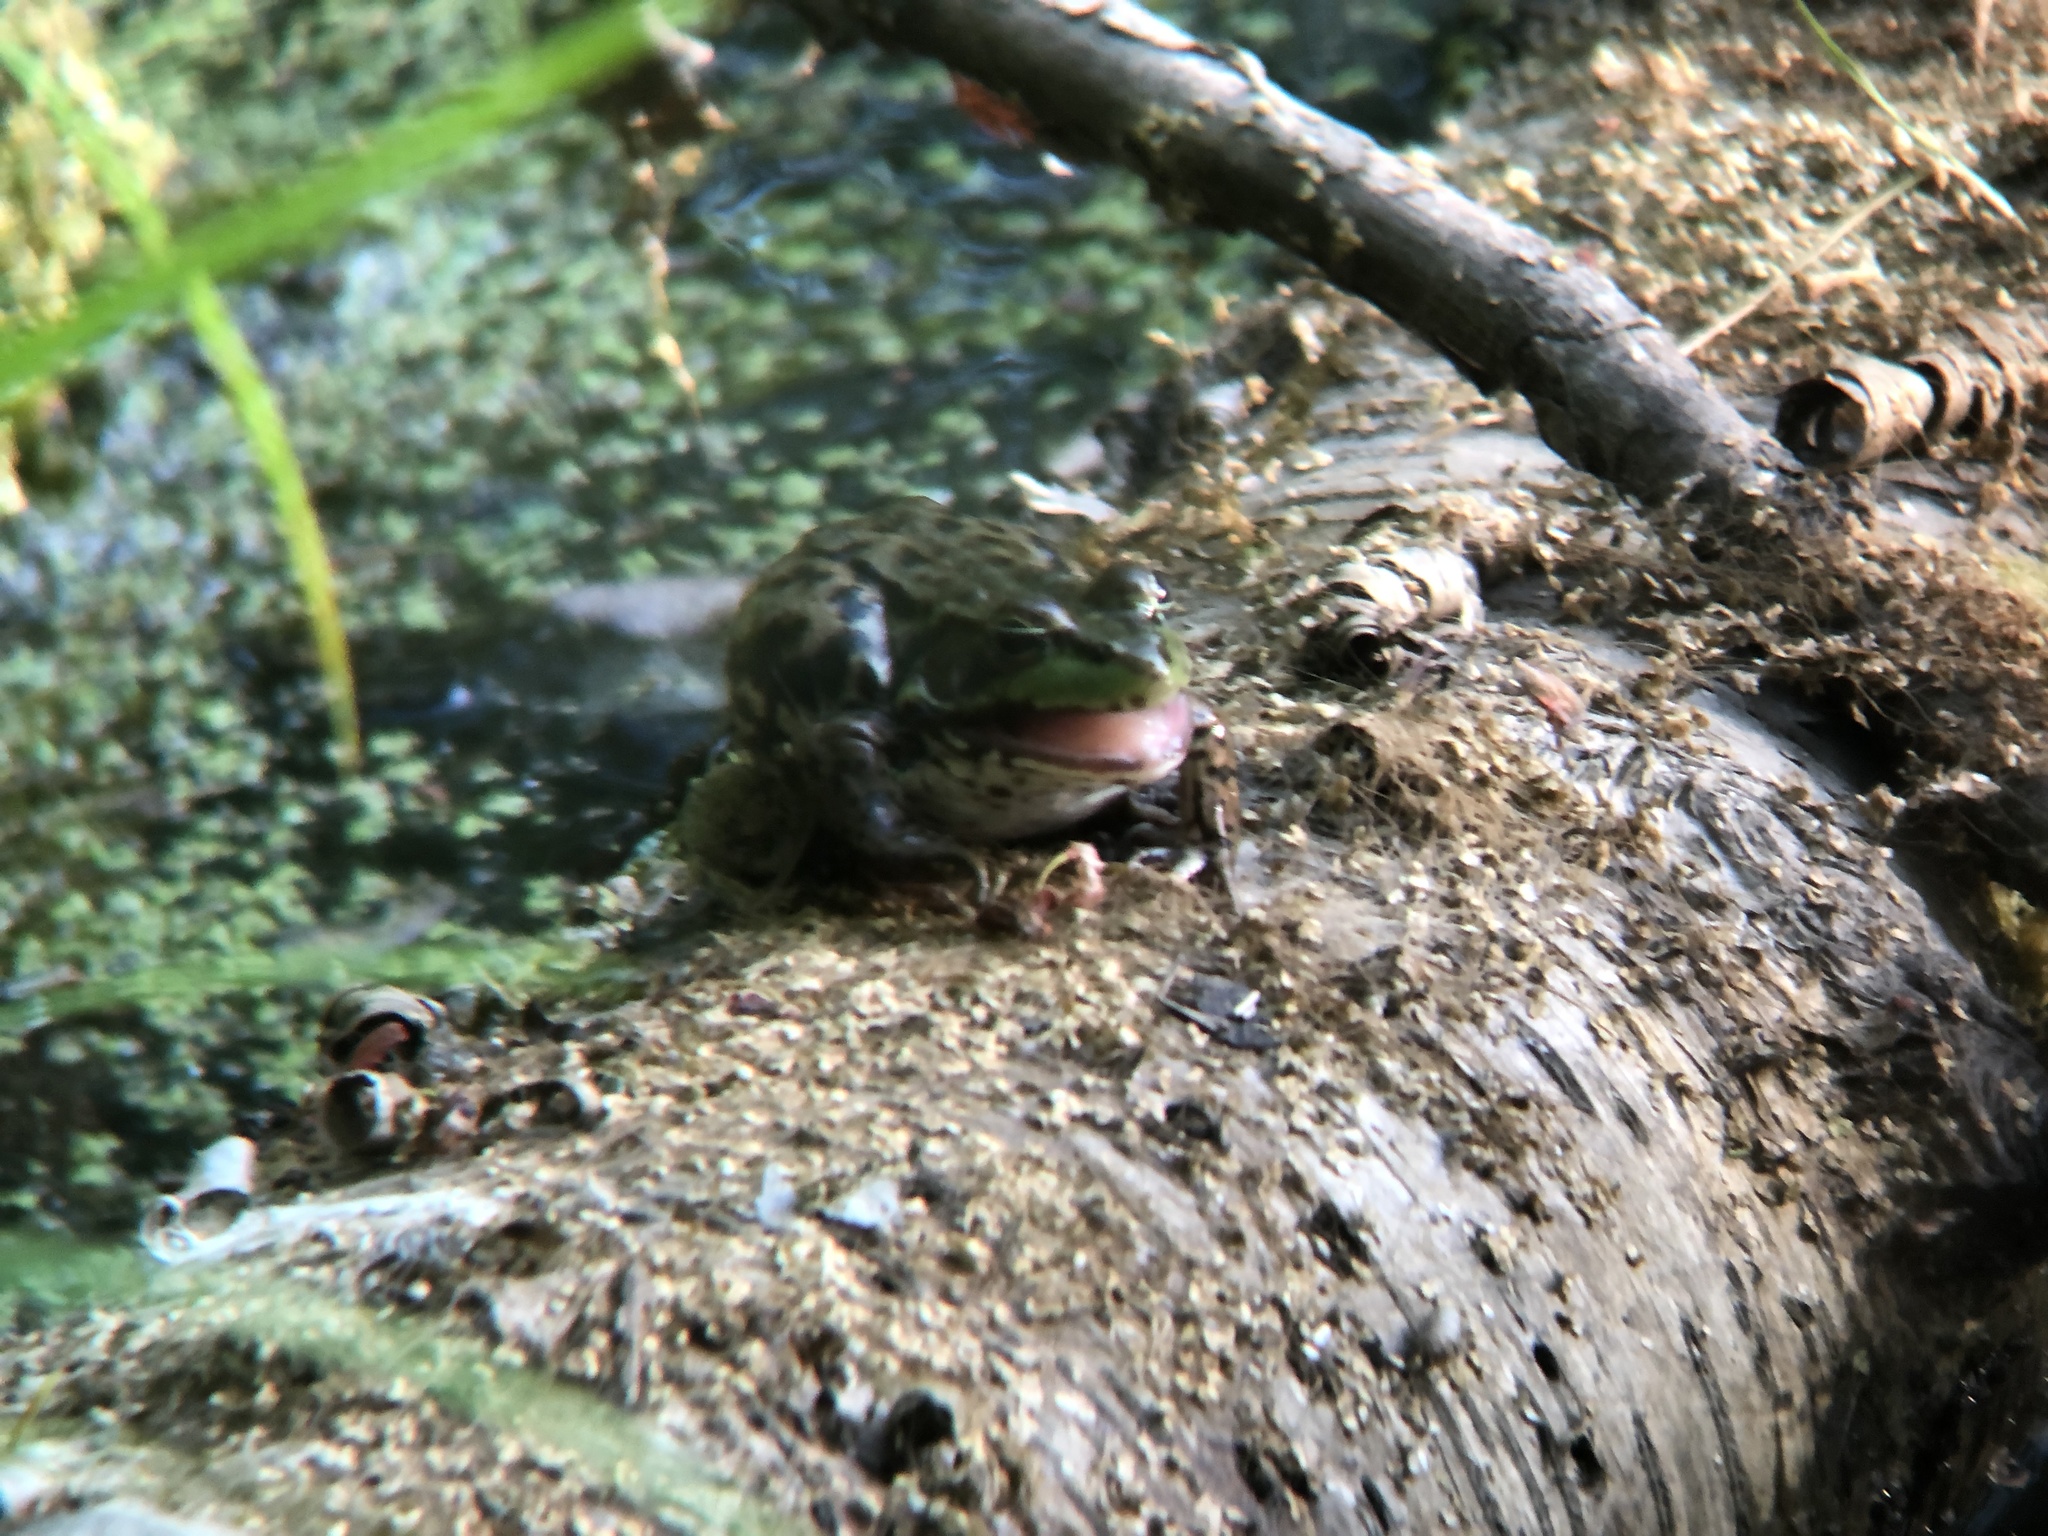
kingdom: Animalia
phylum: Chordata
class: Amphibia
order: Anura
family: Ranidae
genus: Lithobates
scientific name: Lithobates clamitans
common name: Green frog
